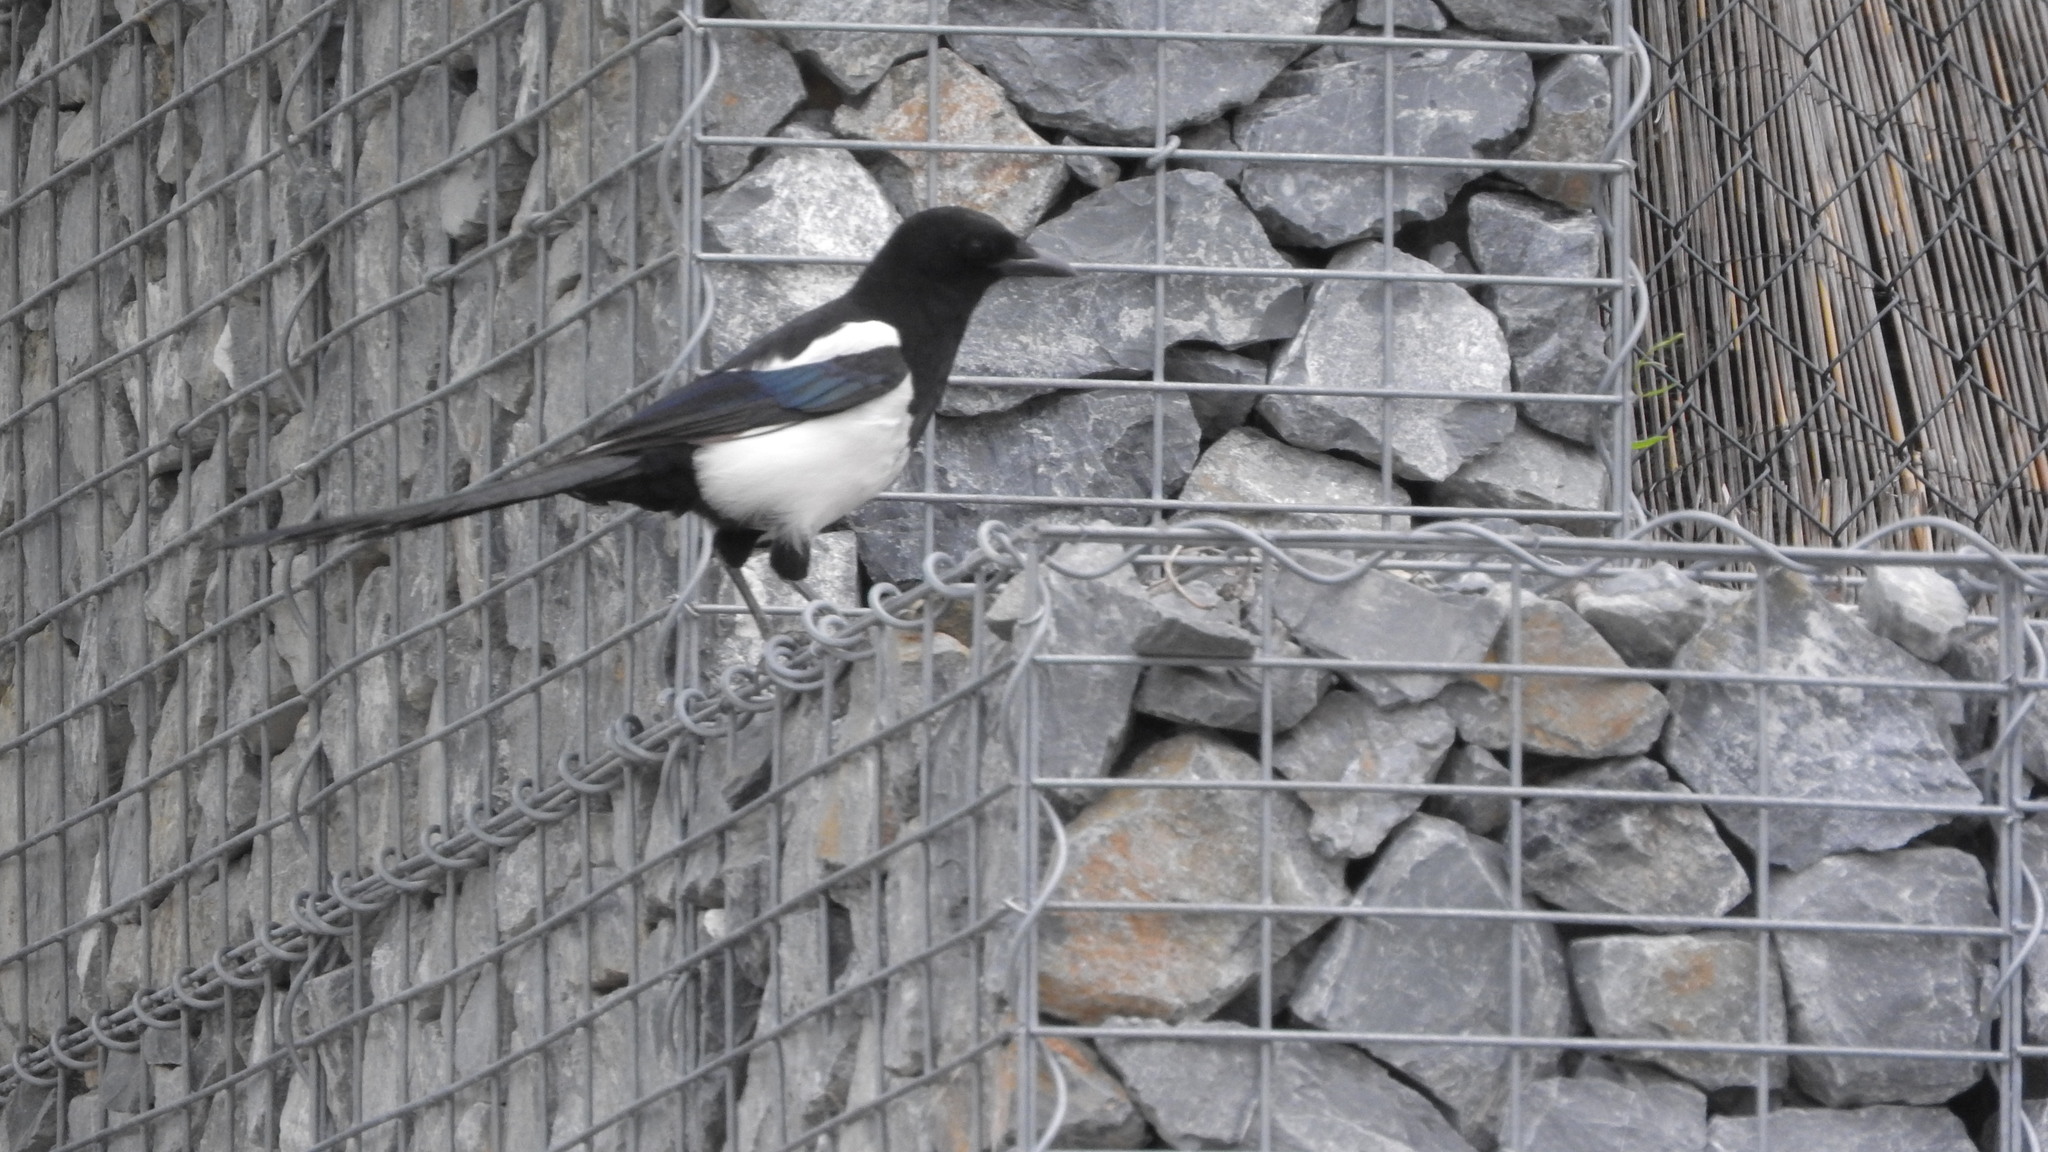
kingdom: Animalia
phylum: Chordata
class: Aves
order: Passeriformes
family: Corvidae
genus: Pica
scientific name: Pica pica
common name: Eurasian magpie
